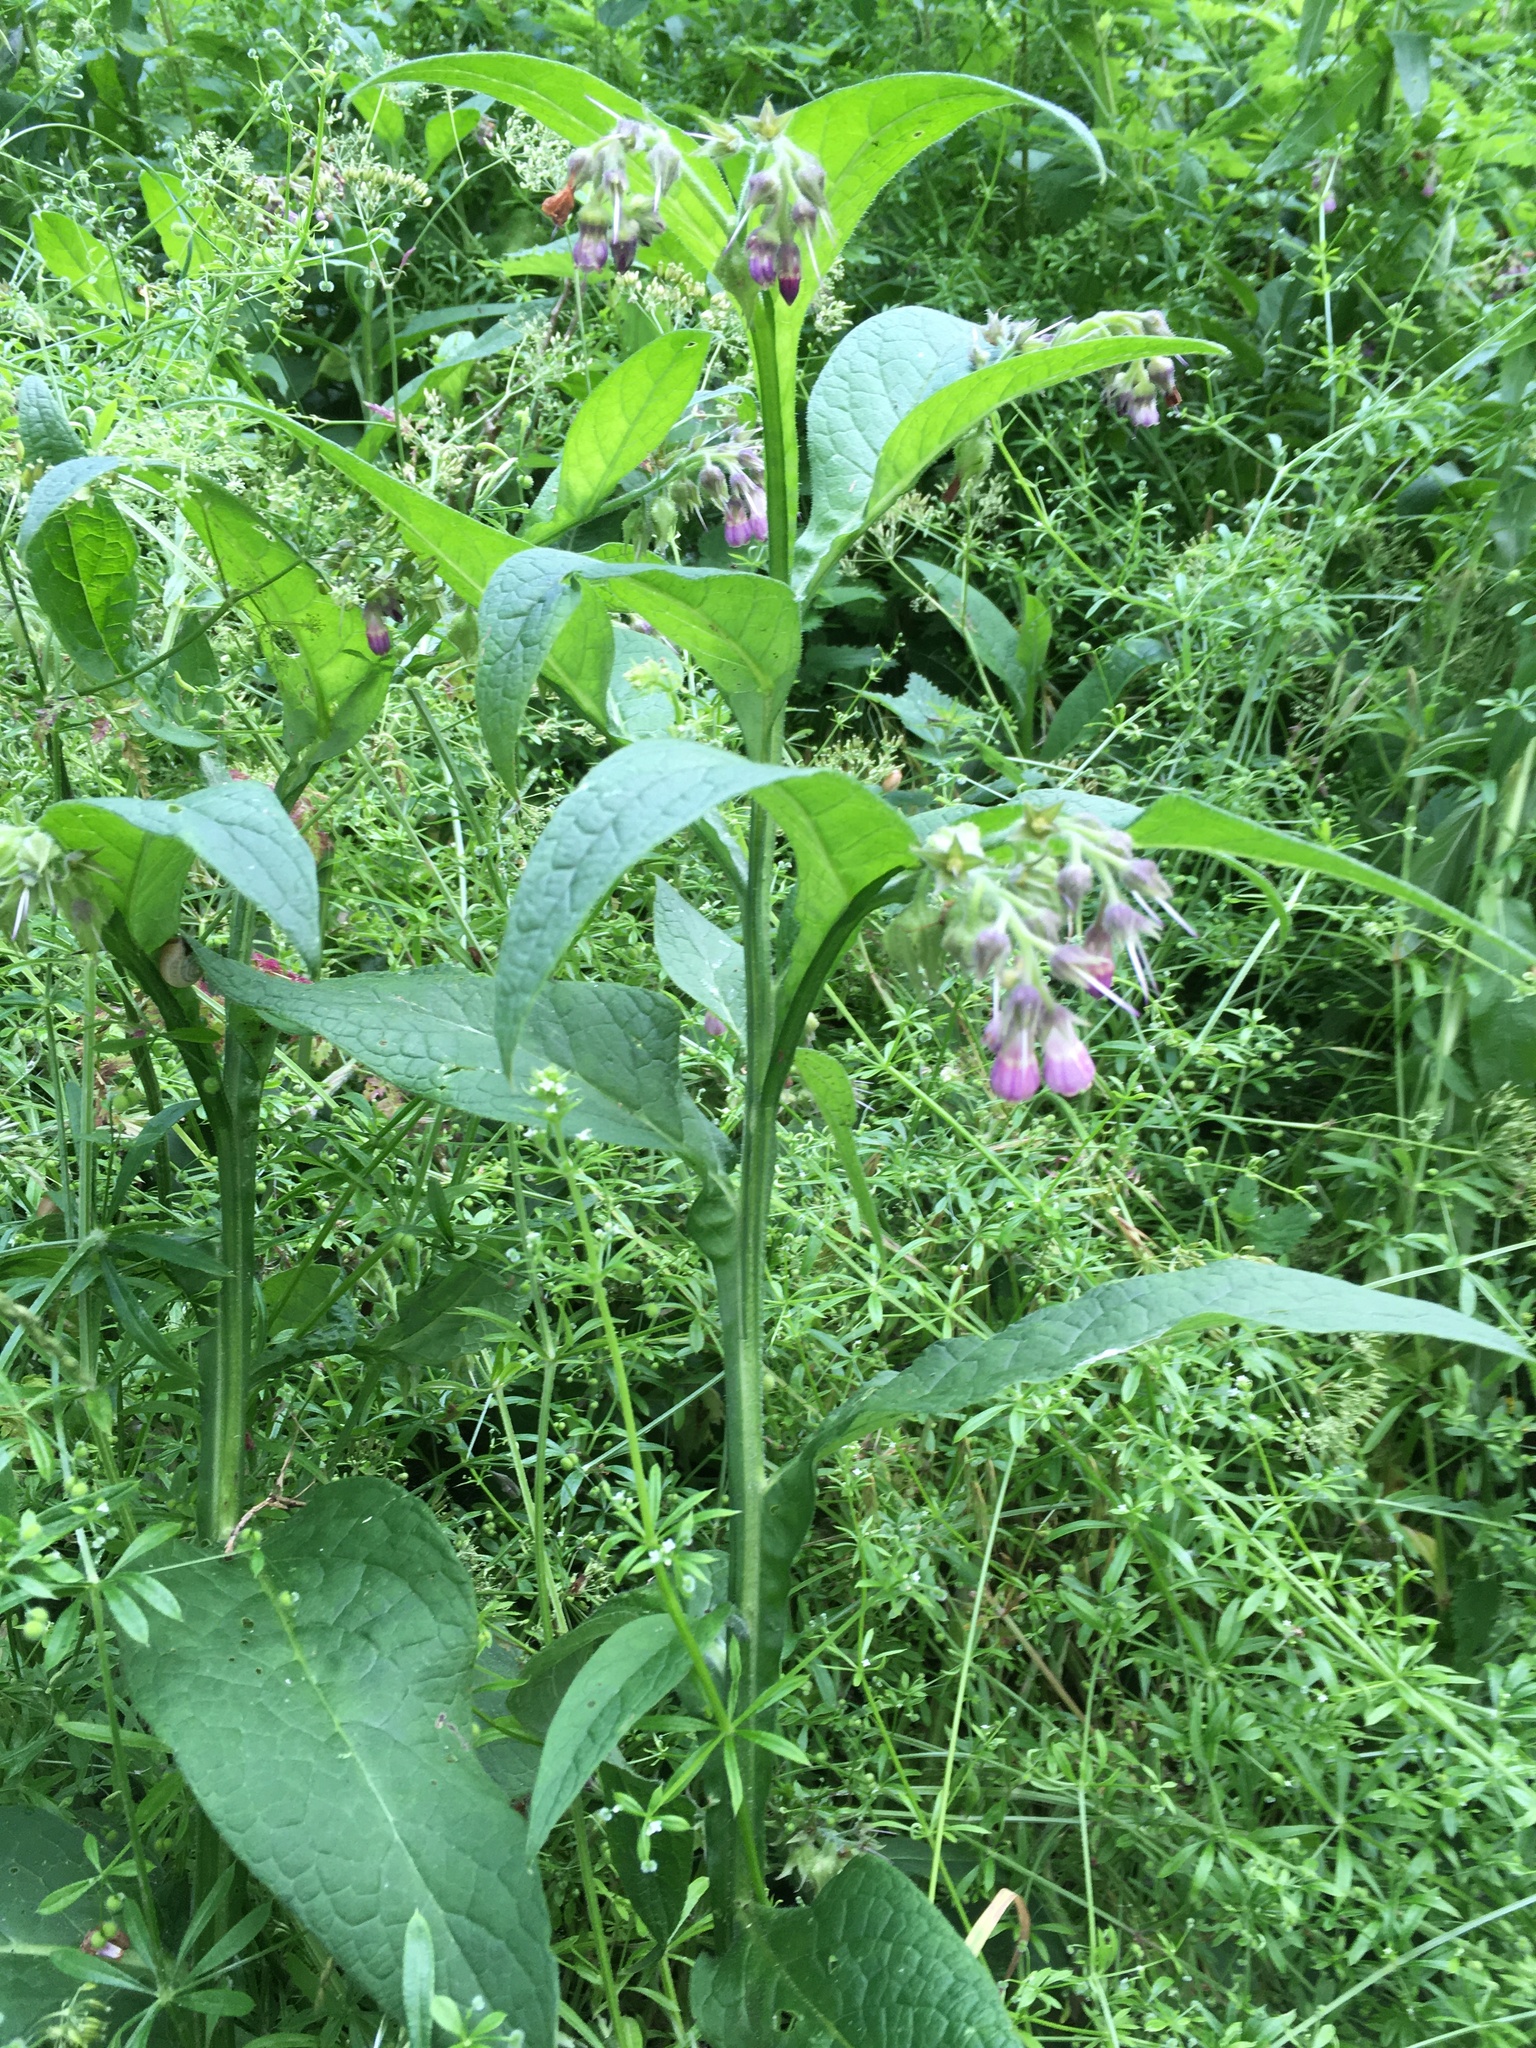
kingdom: Plantae
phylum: Tracheophyta
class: Magnoliopsida
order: Boraginales
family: Boraginaceae
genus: Symphytum
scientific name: Symphytum officinale
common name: Common comfrey
